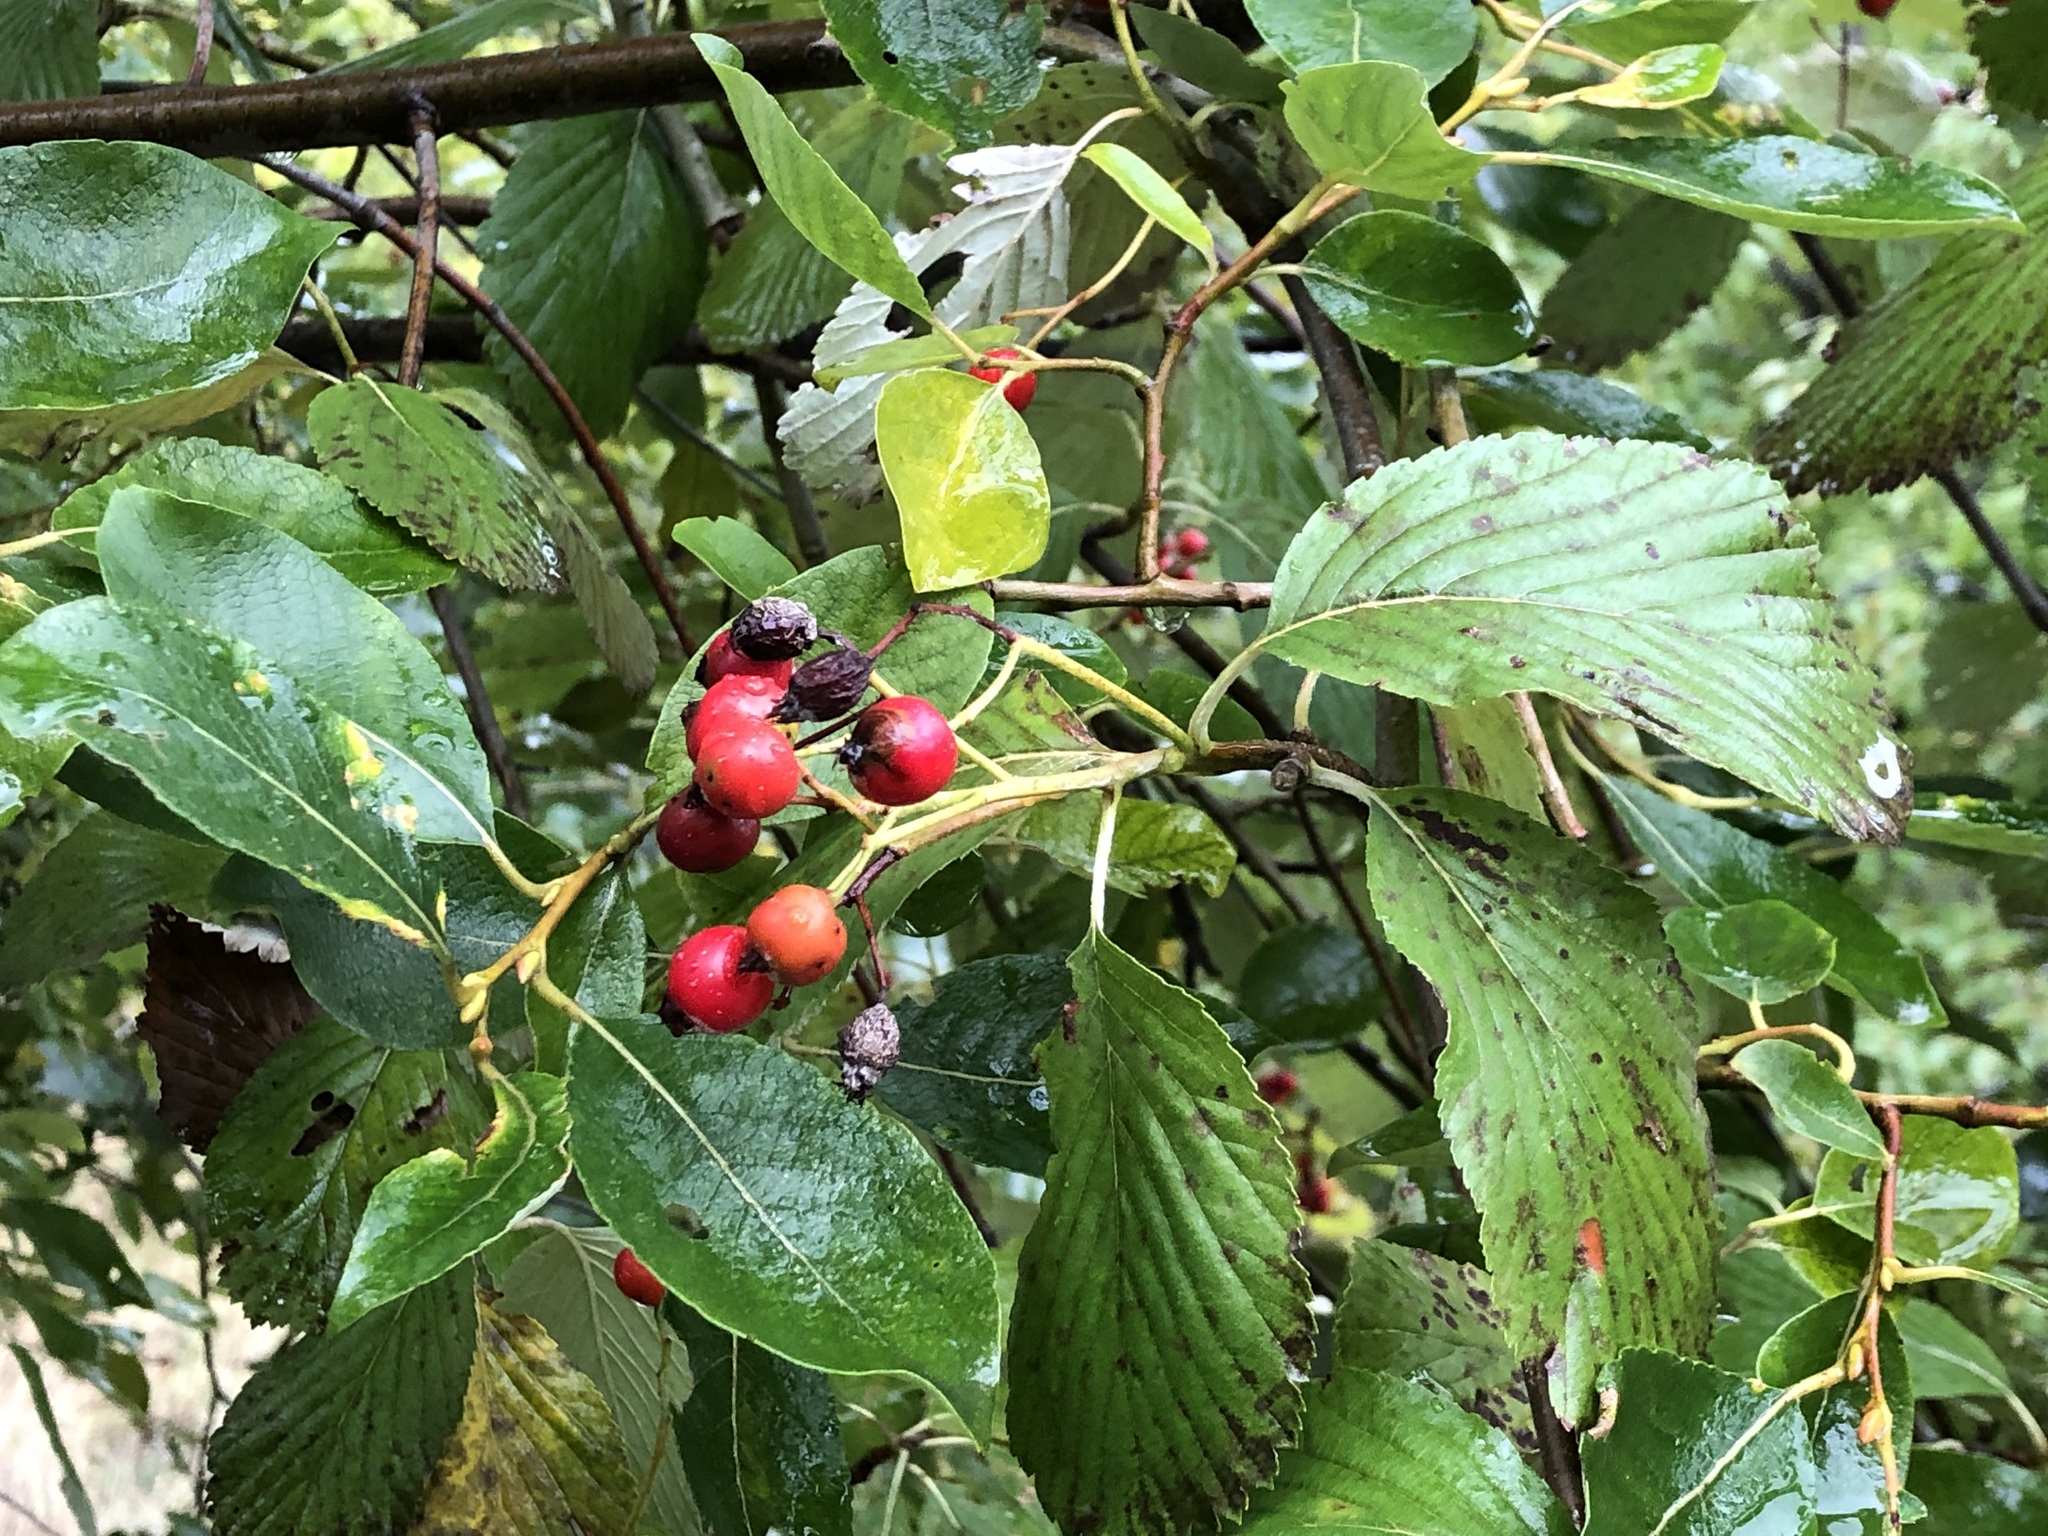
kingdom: Plantae
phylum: Tracheophyta
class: Magnoliopsida
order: Rosales
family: Rosaceae
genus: Aria
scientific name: Aria edulis
